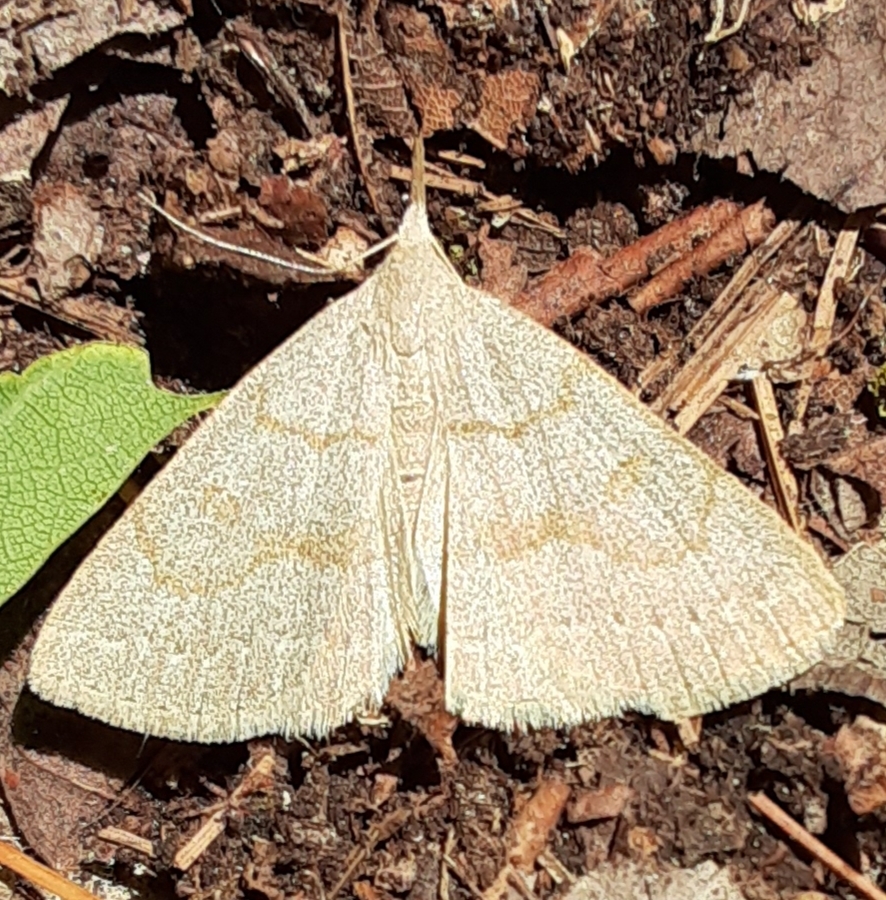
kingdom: Animalia
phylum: Arthropoda
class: Insecta
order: Lepidoptera
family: Erebidae
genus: Macrochilo
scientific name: Macrochilo morbidalis
